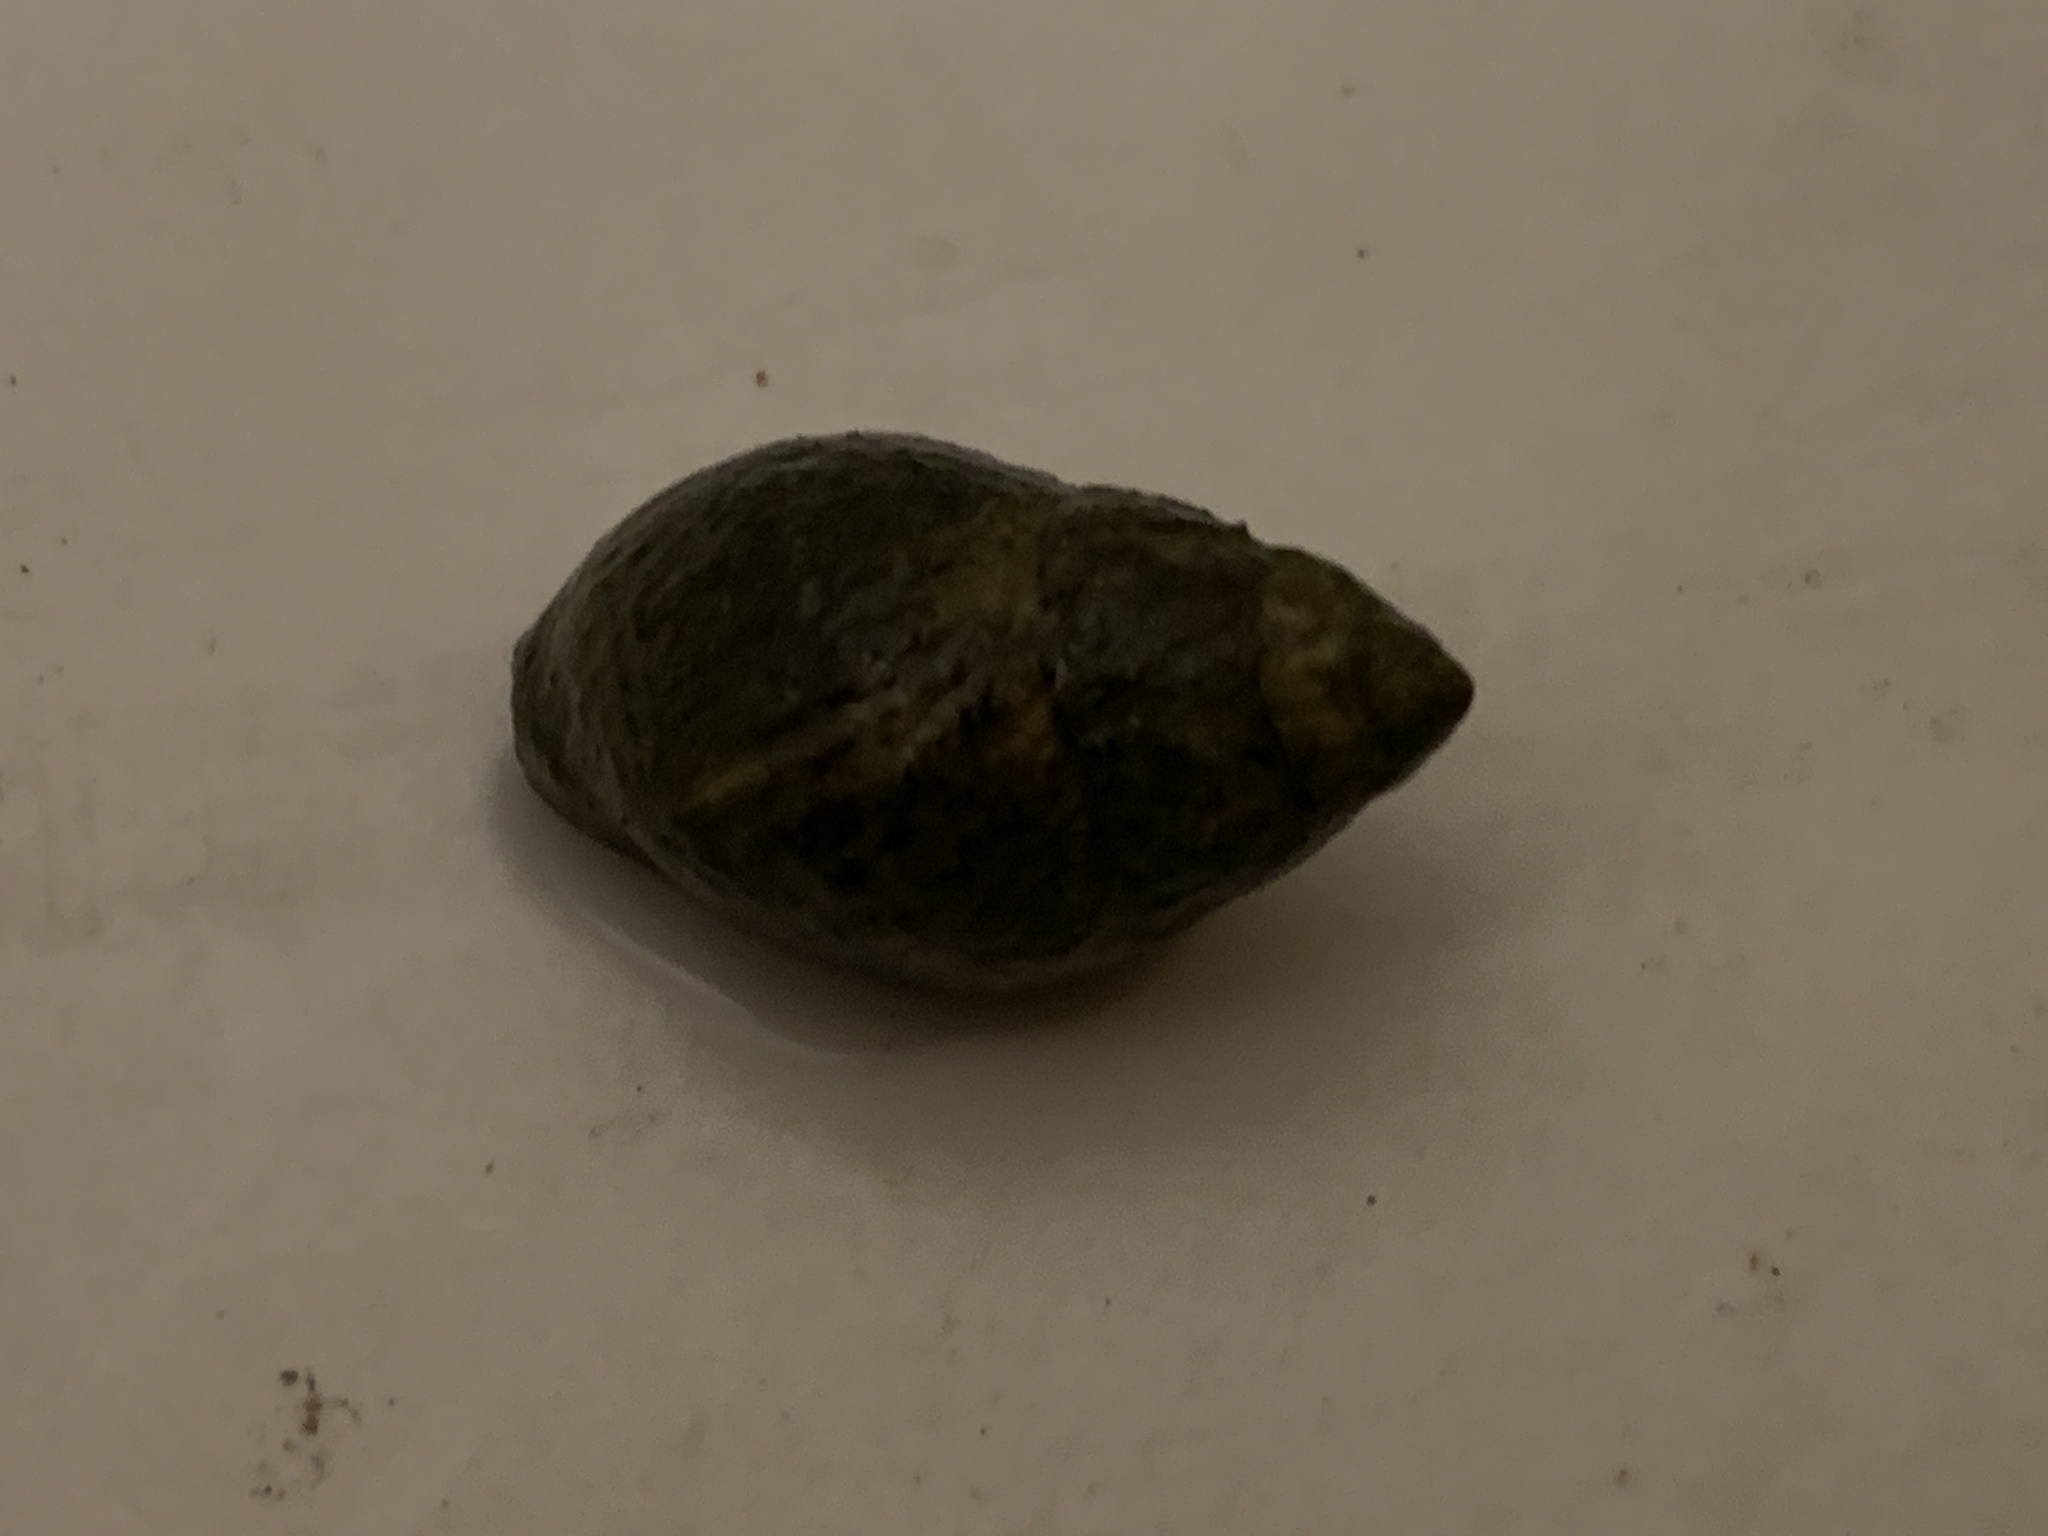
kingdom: Animalia
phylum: Mollusca
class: Gastropoda
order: Neogastropoda
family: Nassariidae
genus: Ilyanassa
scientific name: Ilyanassa obsoleta
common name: Eastern mudsnail
